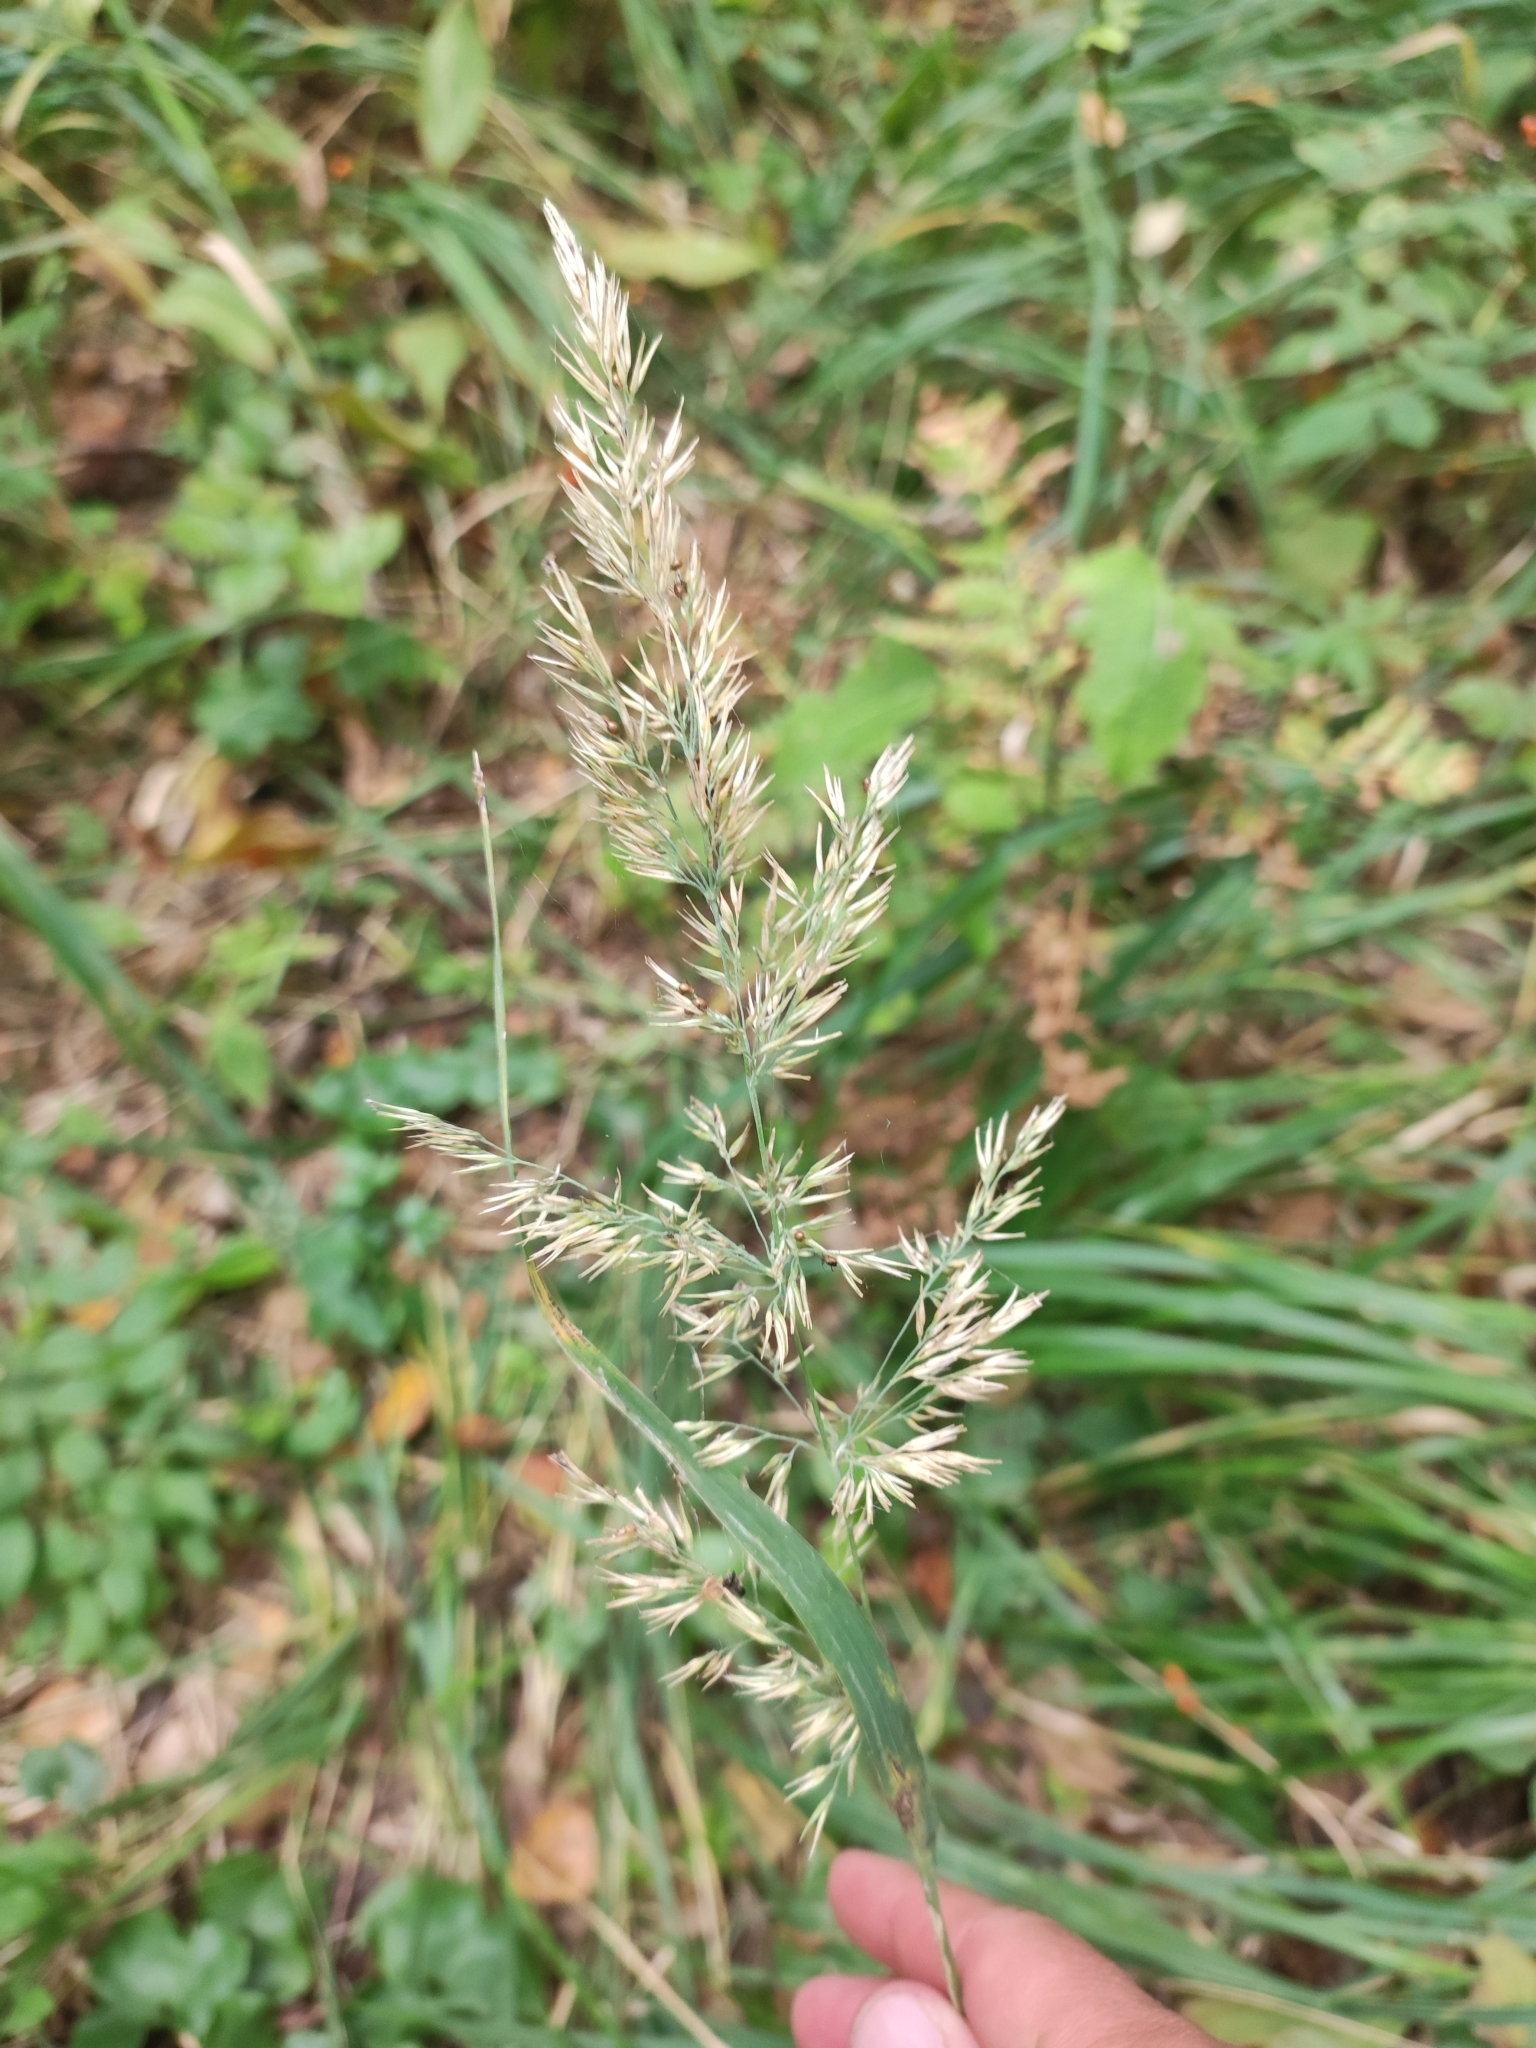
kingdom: Plantae
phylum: Tracheophyta
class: Liliopsida
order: Poales
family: Poaceae
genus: Calamagrostis
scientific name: Calamagrostis epigejos
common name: Wood small-reed
